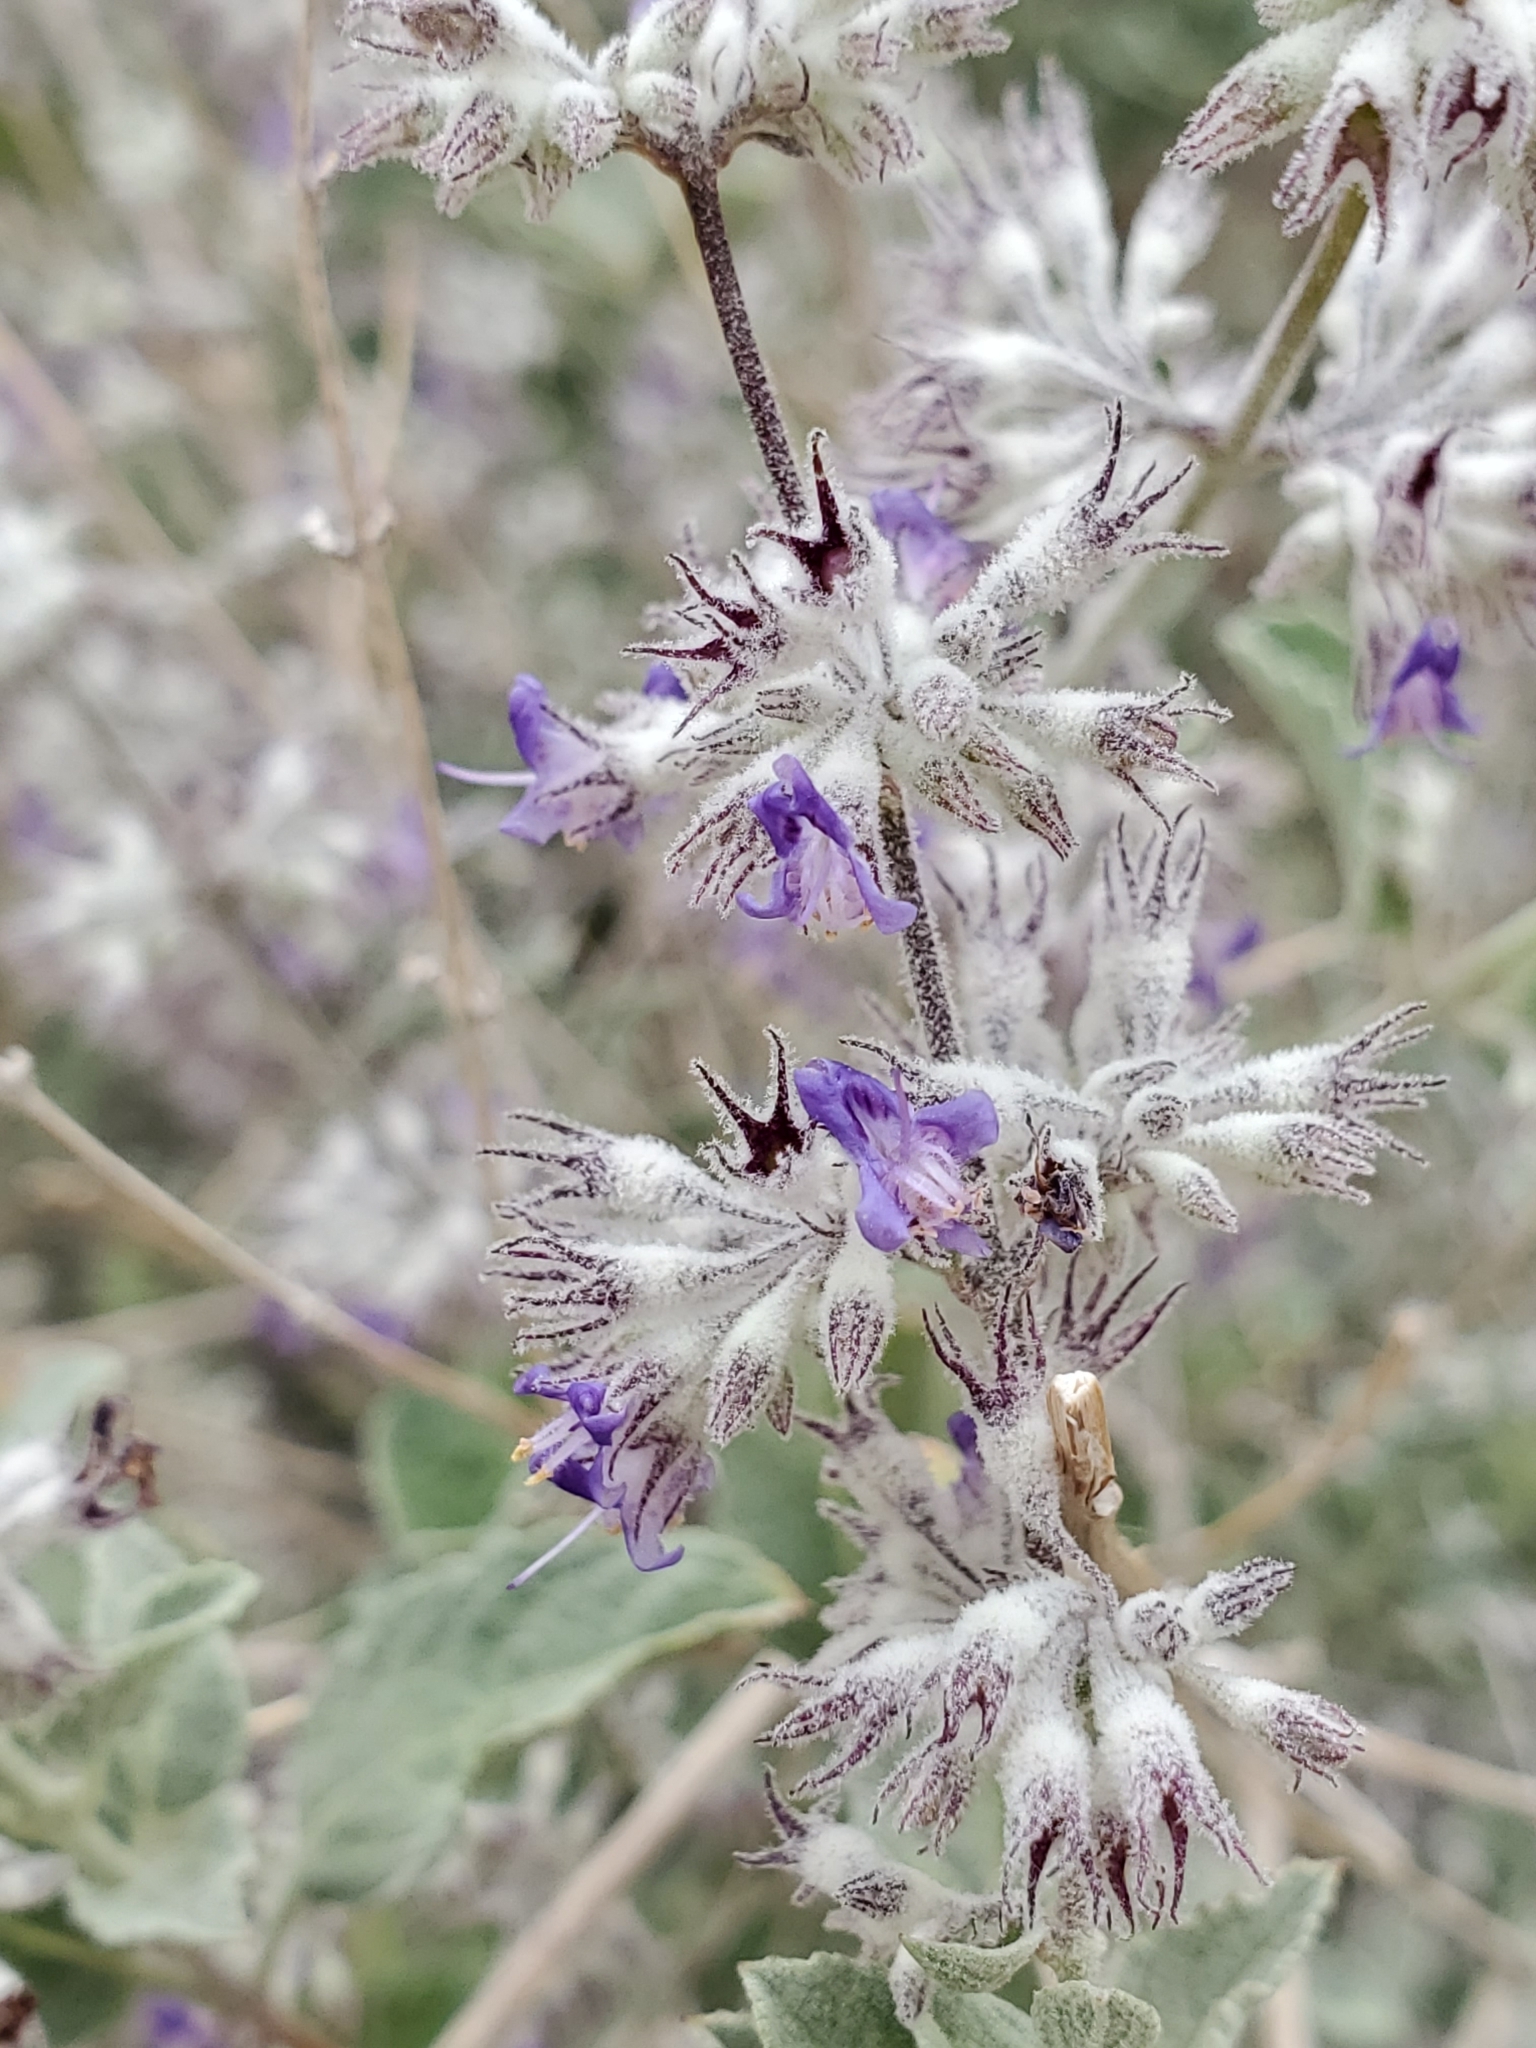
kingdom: Plantae
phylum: Tracheophyta
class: Magnoliopsida
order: Lamiales
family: Lamiaceae
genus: Condea
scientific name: Condea emoryi
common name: Chia
